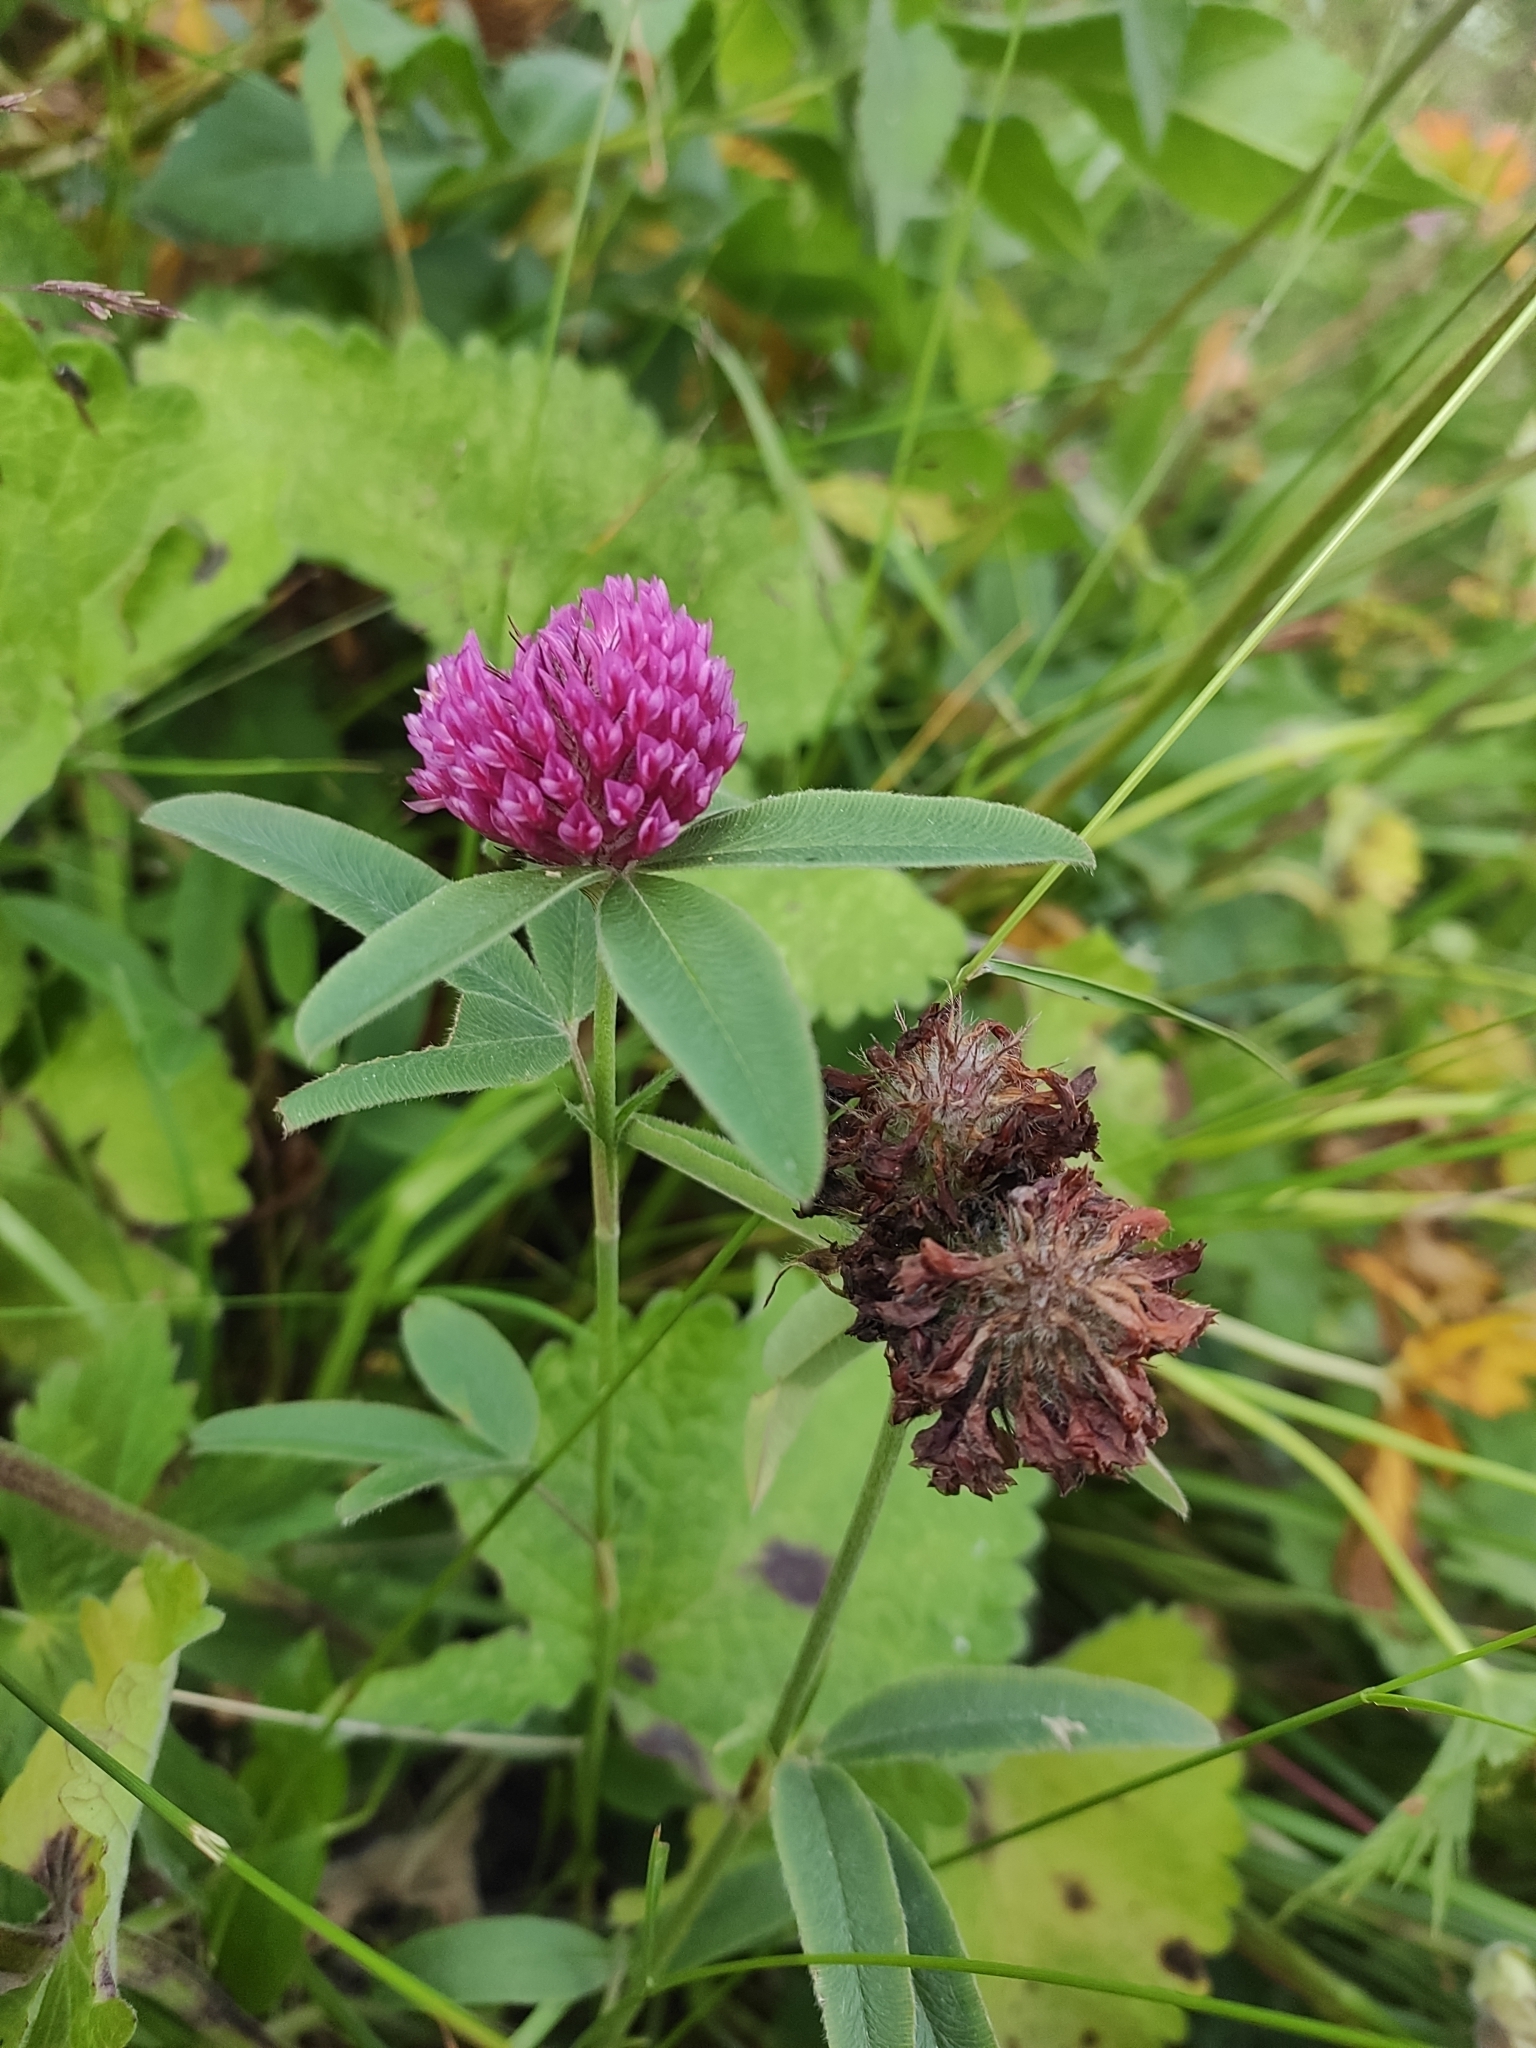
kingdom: Plantae
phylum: Tracheophyta
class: Magnoliopsida
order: Fabales
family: Fabaceae
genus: Trifolium
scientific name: Trifolium alpestre
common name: Owl-head clover
